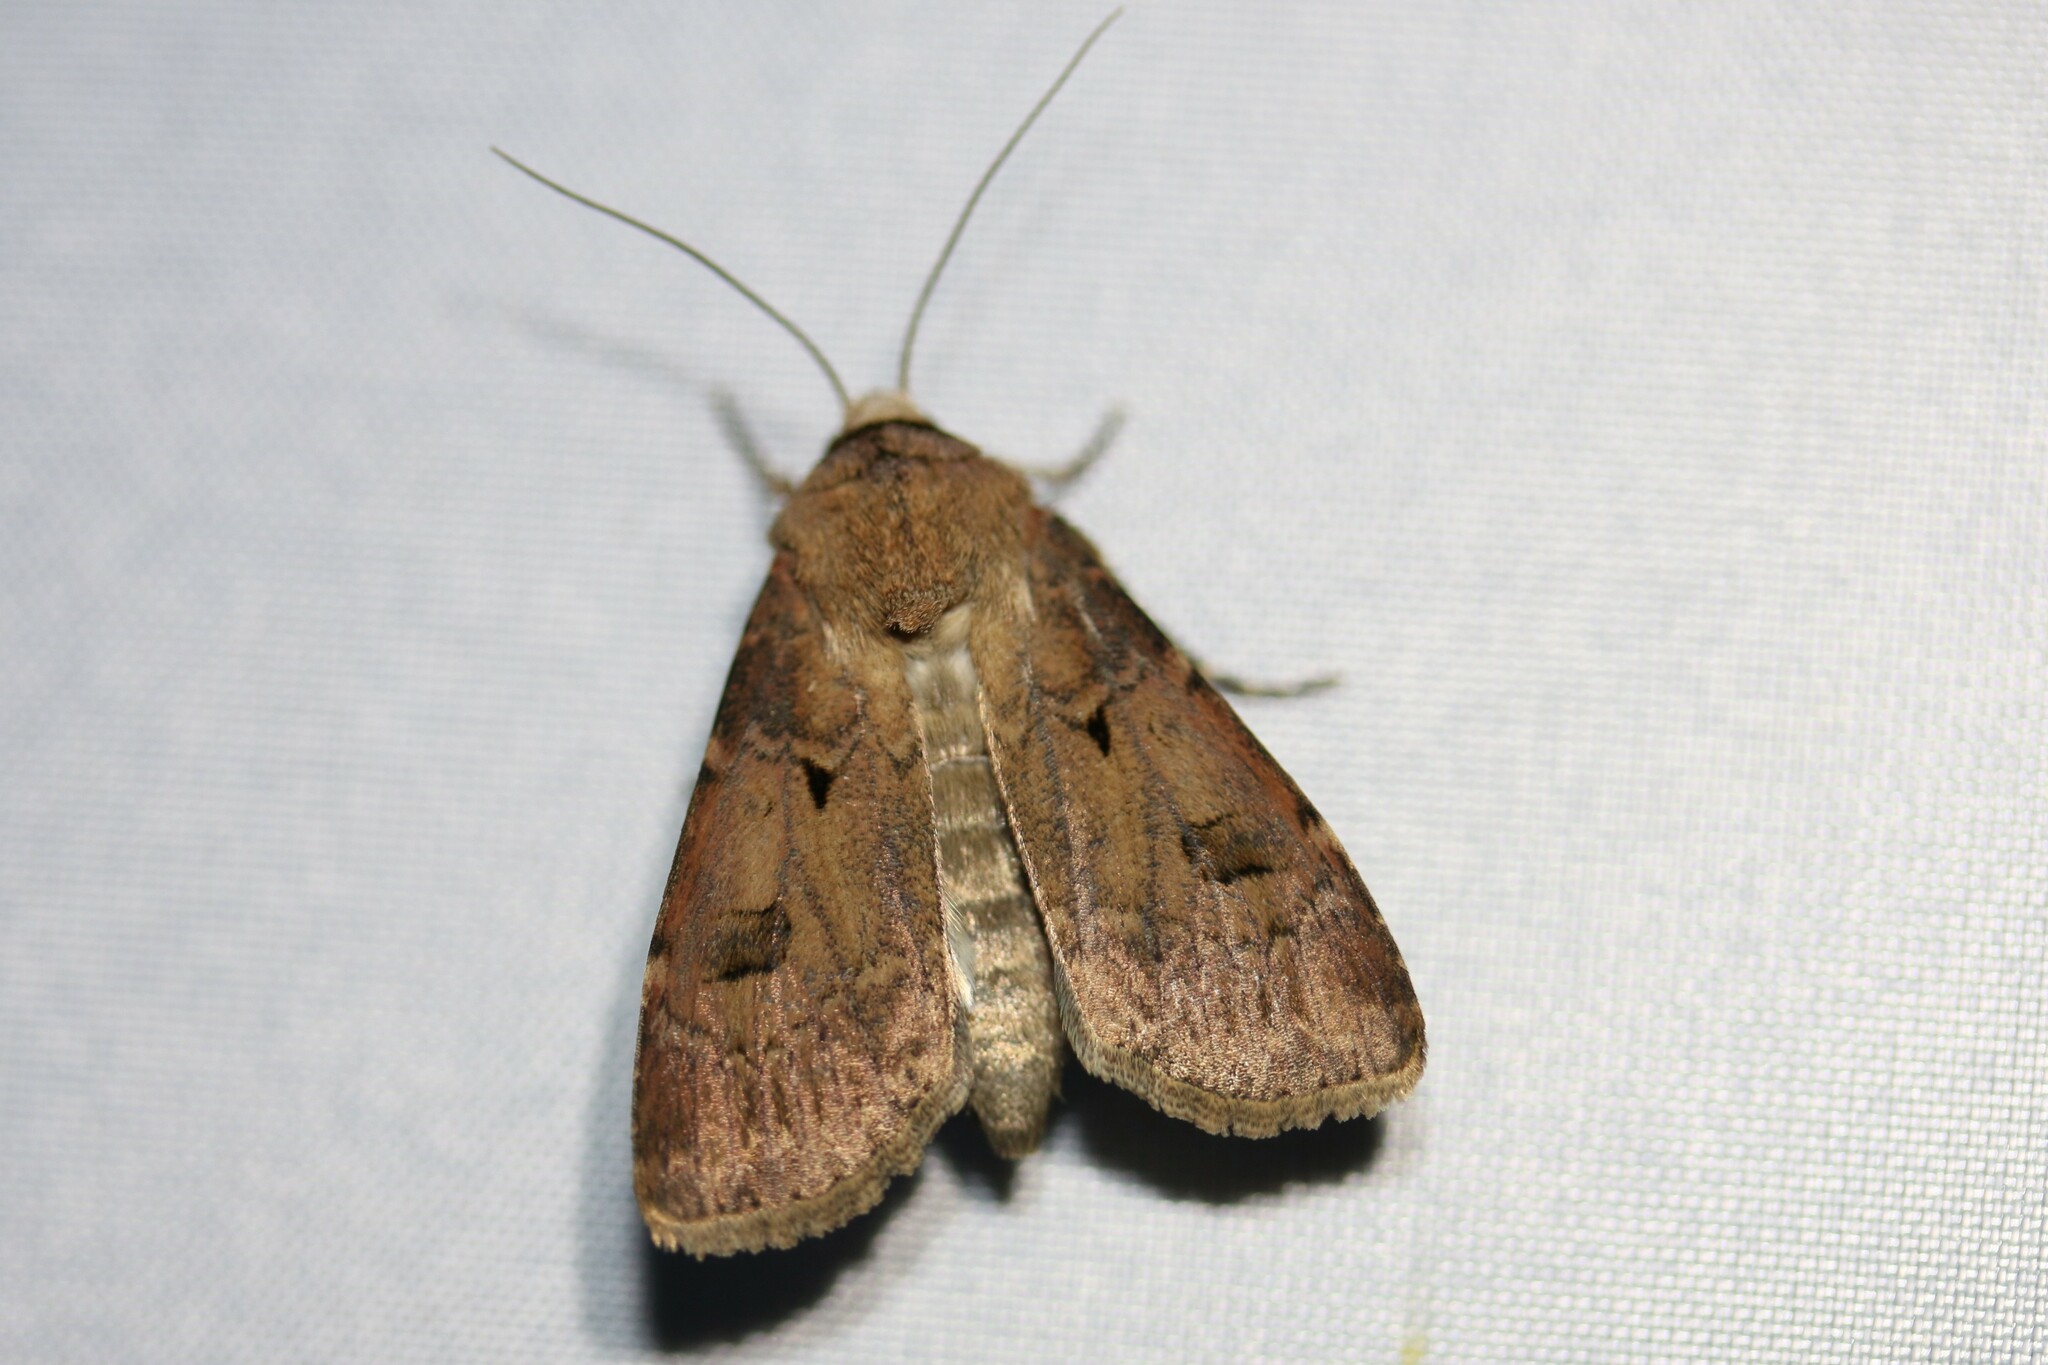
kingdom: Animalia
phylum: Arthropoda
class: Insecta
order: Lepidoptera
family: Noctuidae
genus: Agrotis
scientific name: Agrotis exclamationis
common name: Heart and dart
